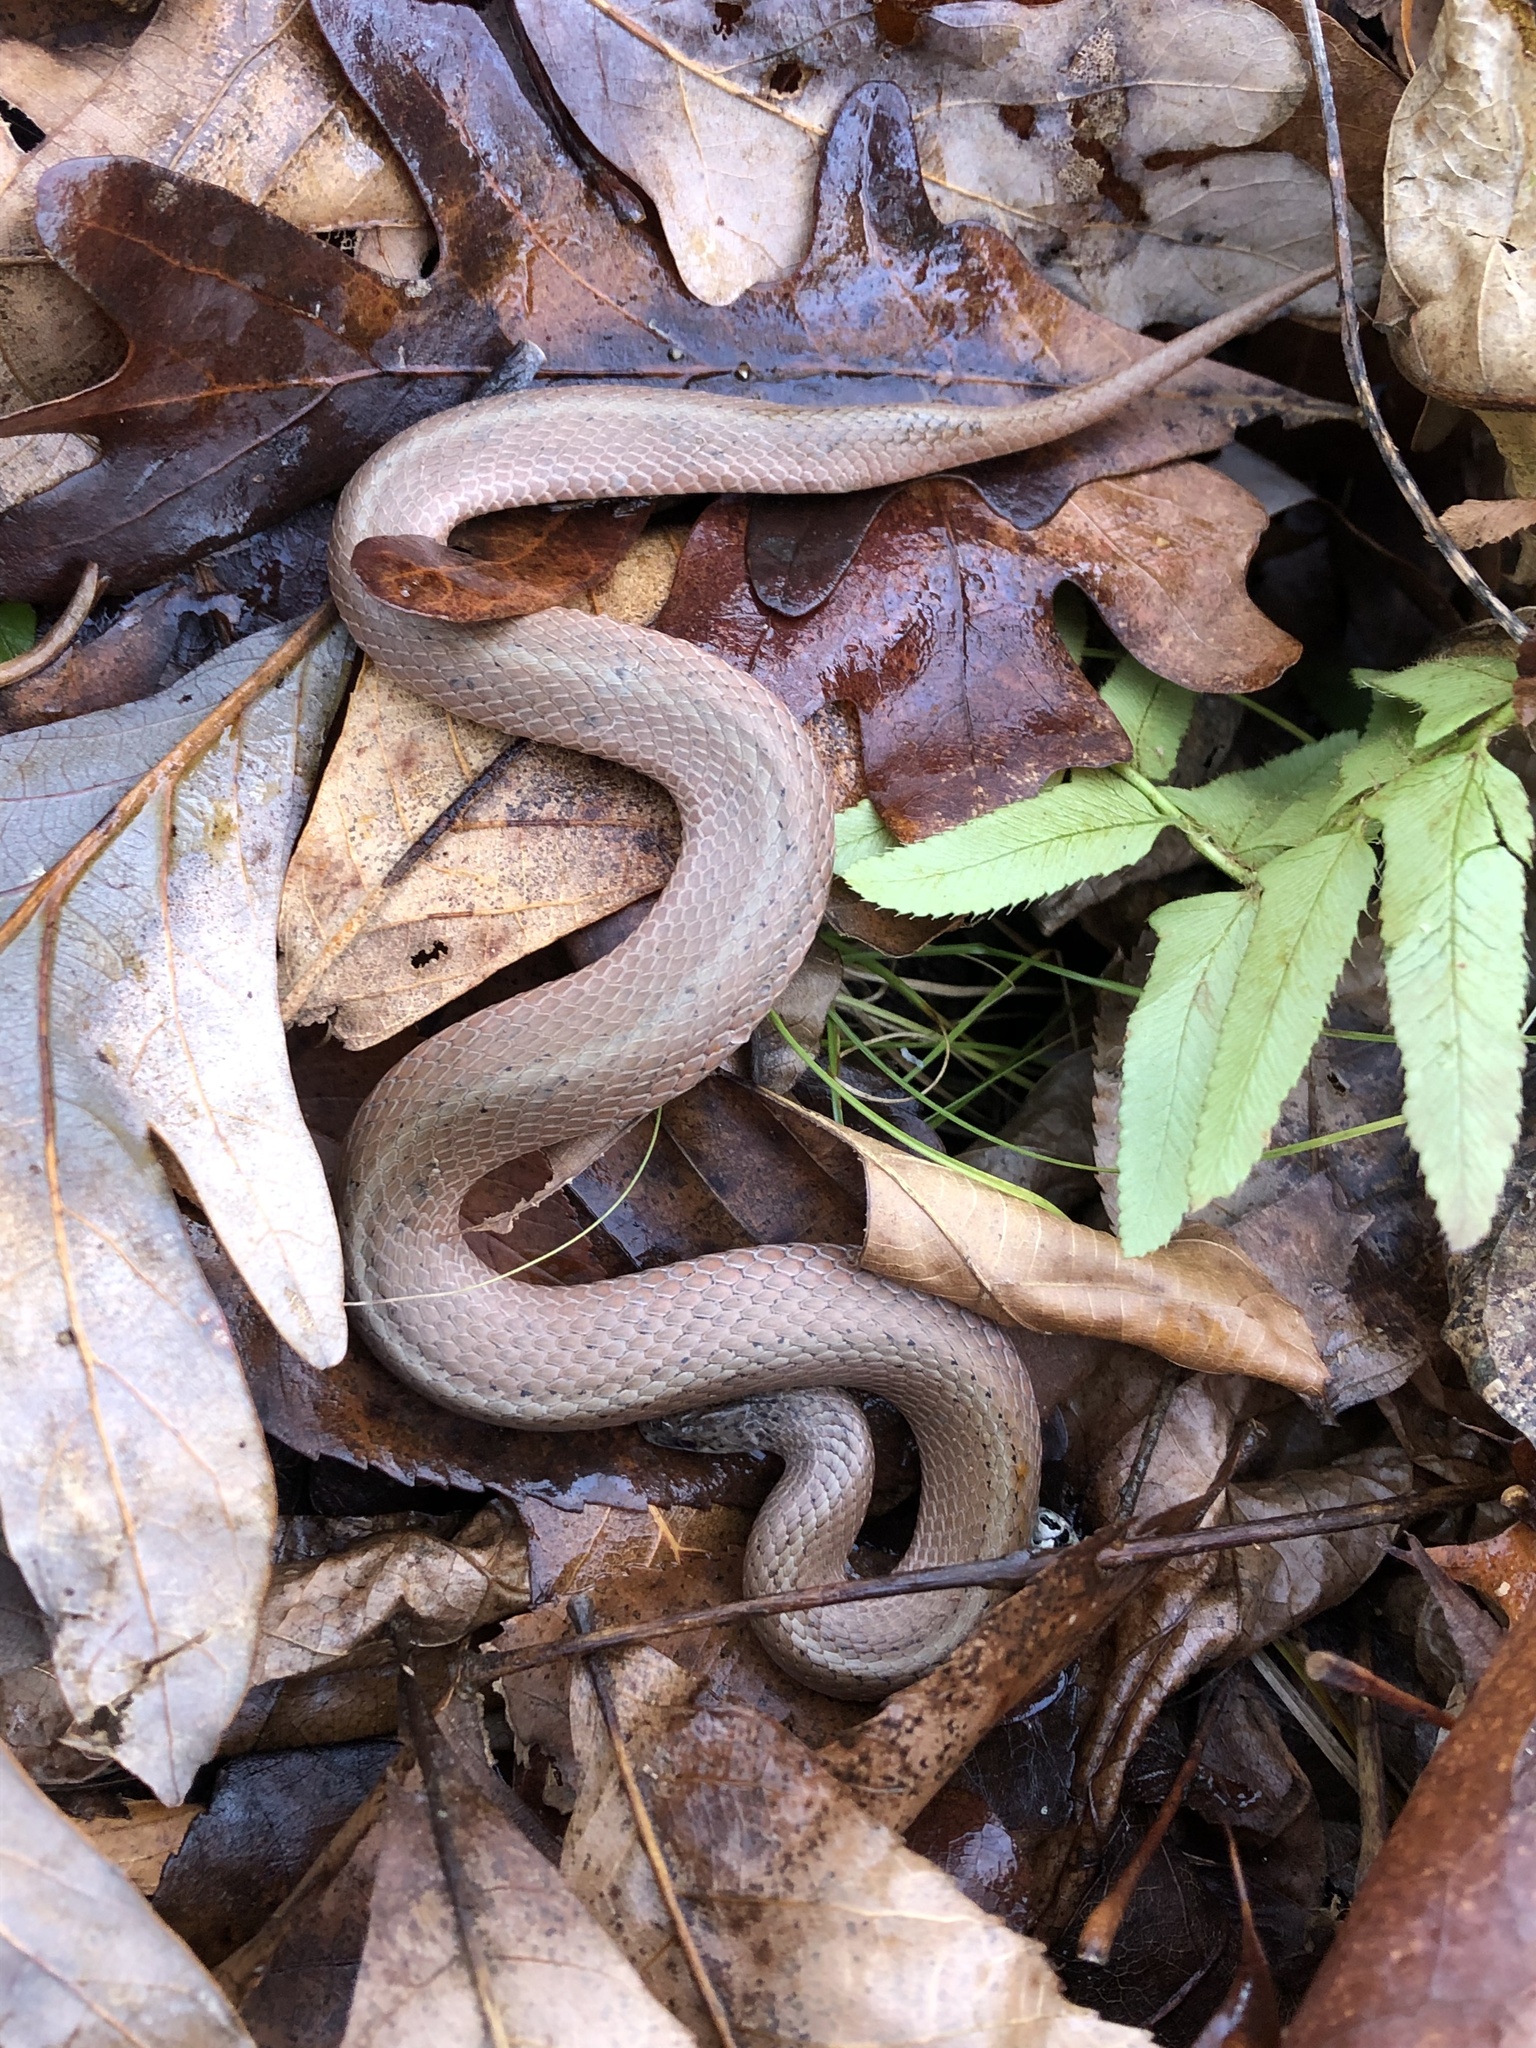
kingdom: Animalia
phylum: Chordata
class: Squamata
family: Colubridae
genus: Virginia
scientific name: Virginia valeriae
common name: Smooth earth snake
